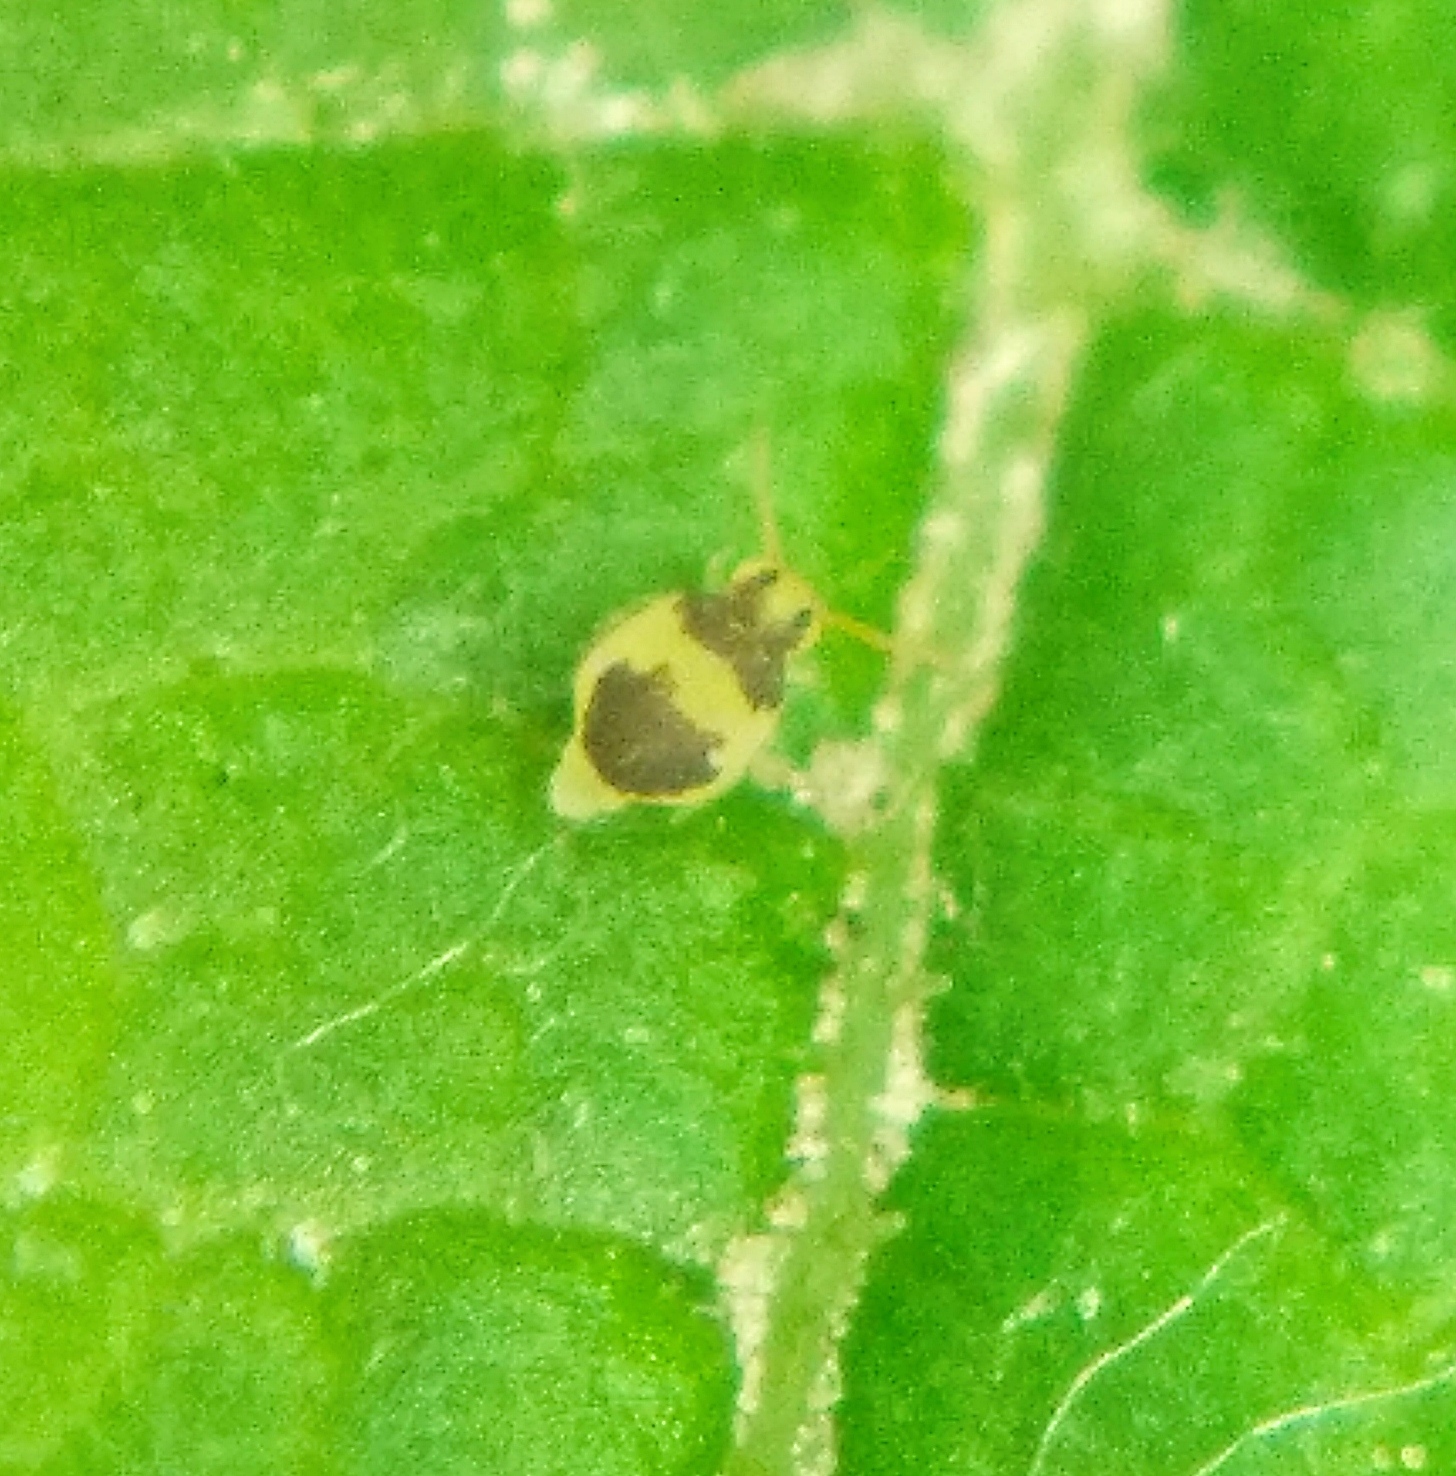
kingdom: Animalia
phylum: Arthropoda
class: Collembola
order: Symphypleona
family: Bourletiellidae
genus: Deuterosminthurus
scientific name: Deuterosminthurus bicinctus
